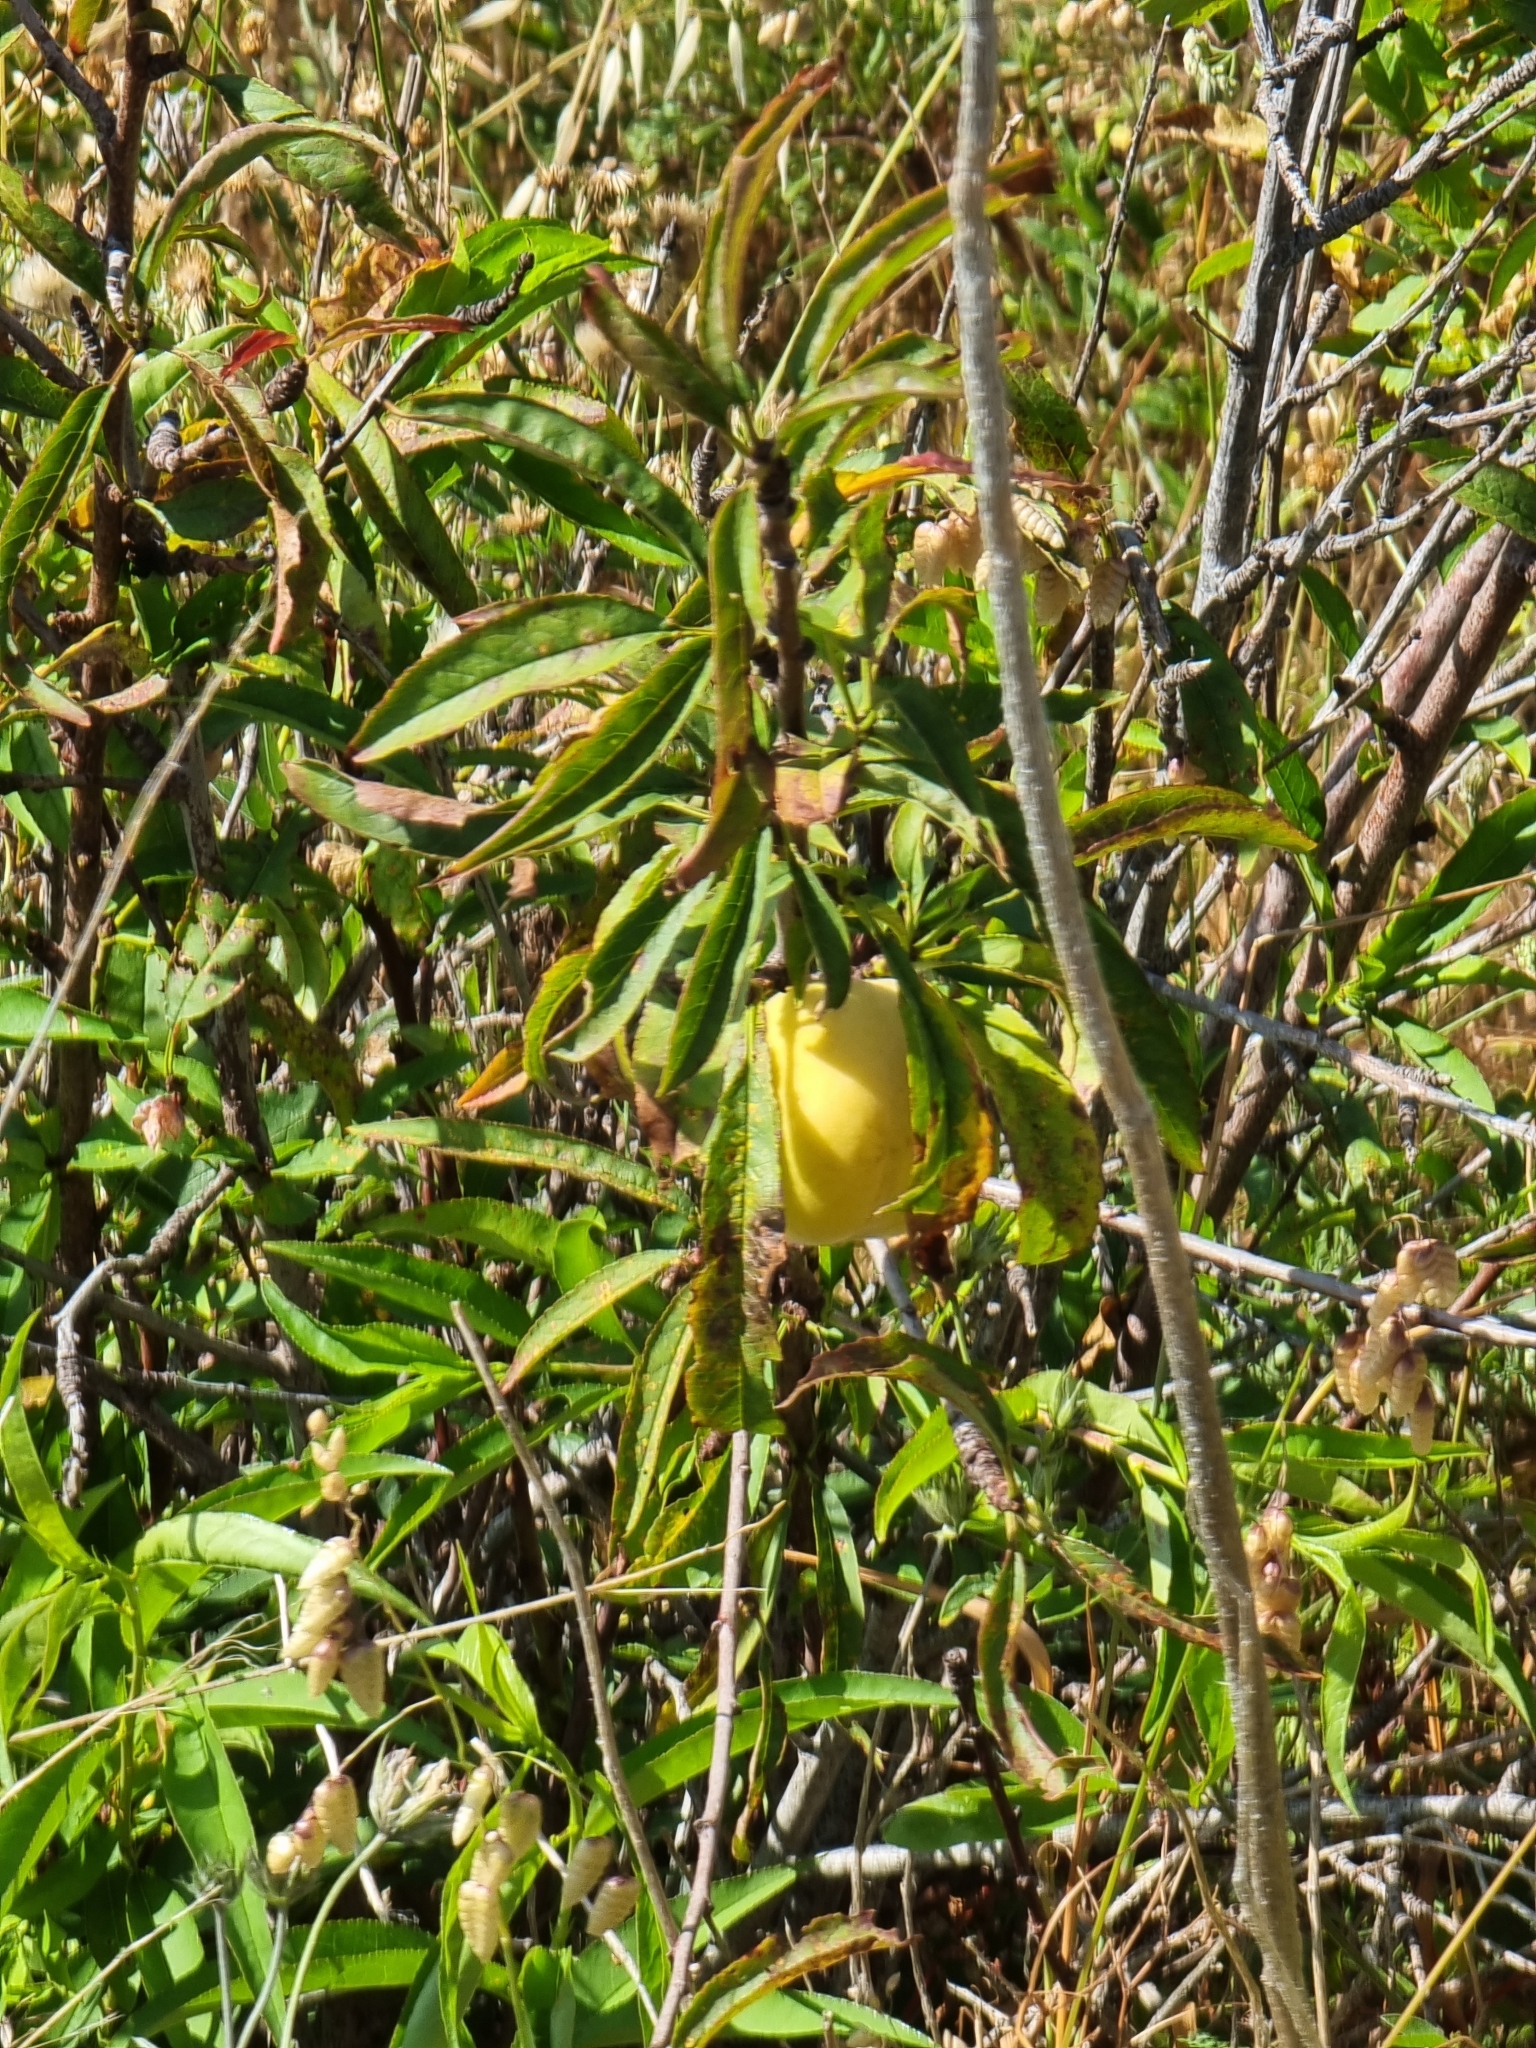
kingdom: Plantae
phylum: Tracheophyta
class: Magnoliopsida
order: Rosales
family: Rosaceae
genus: Prunus
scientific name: Prunus domestica
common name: Wild plum
